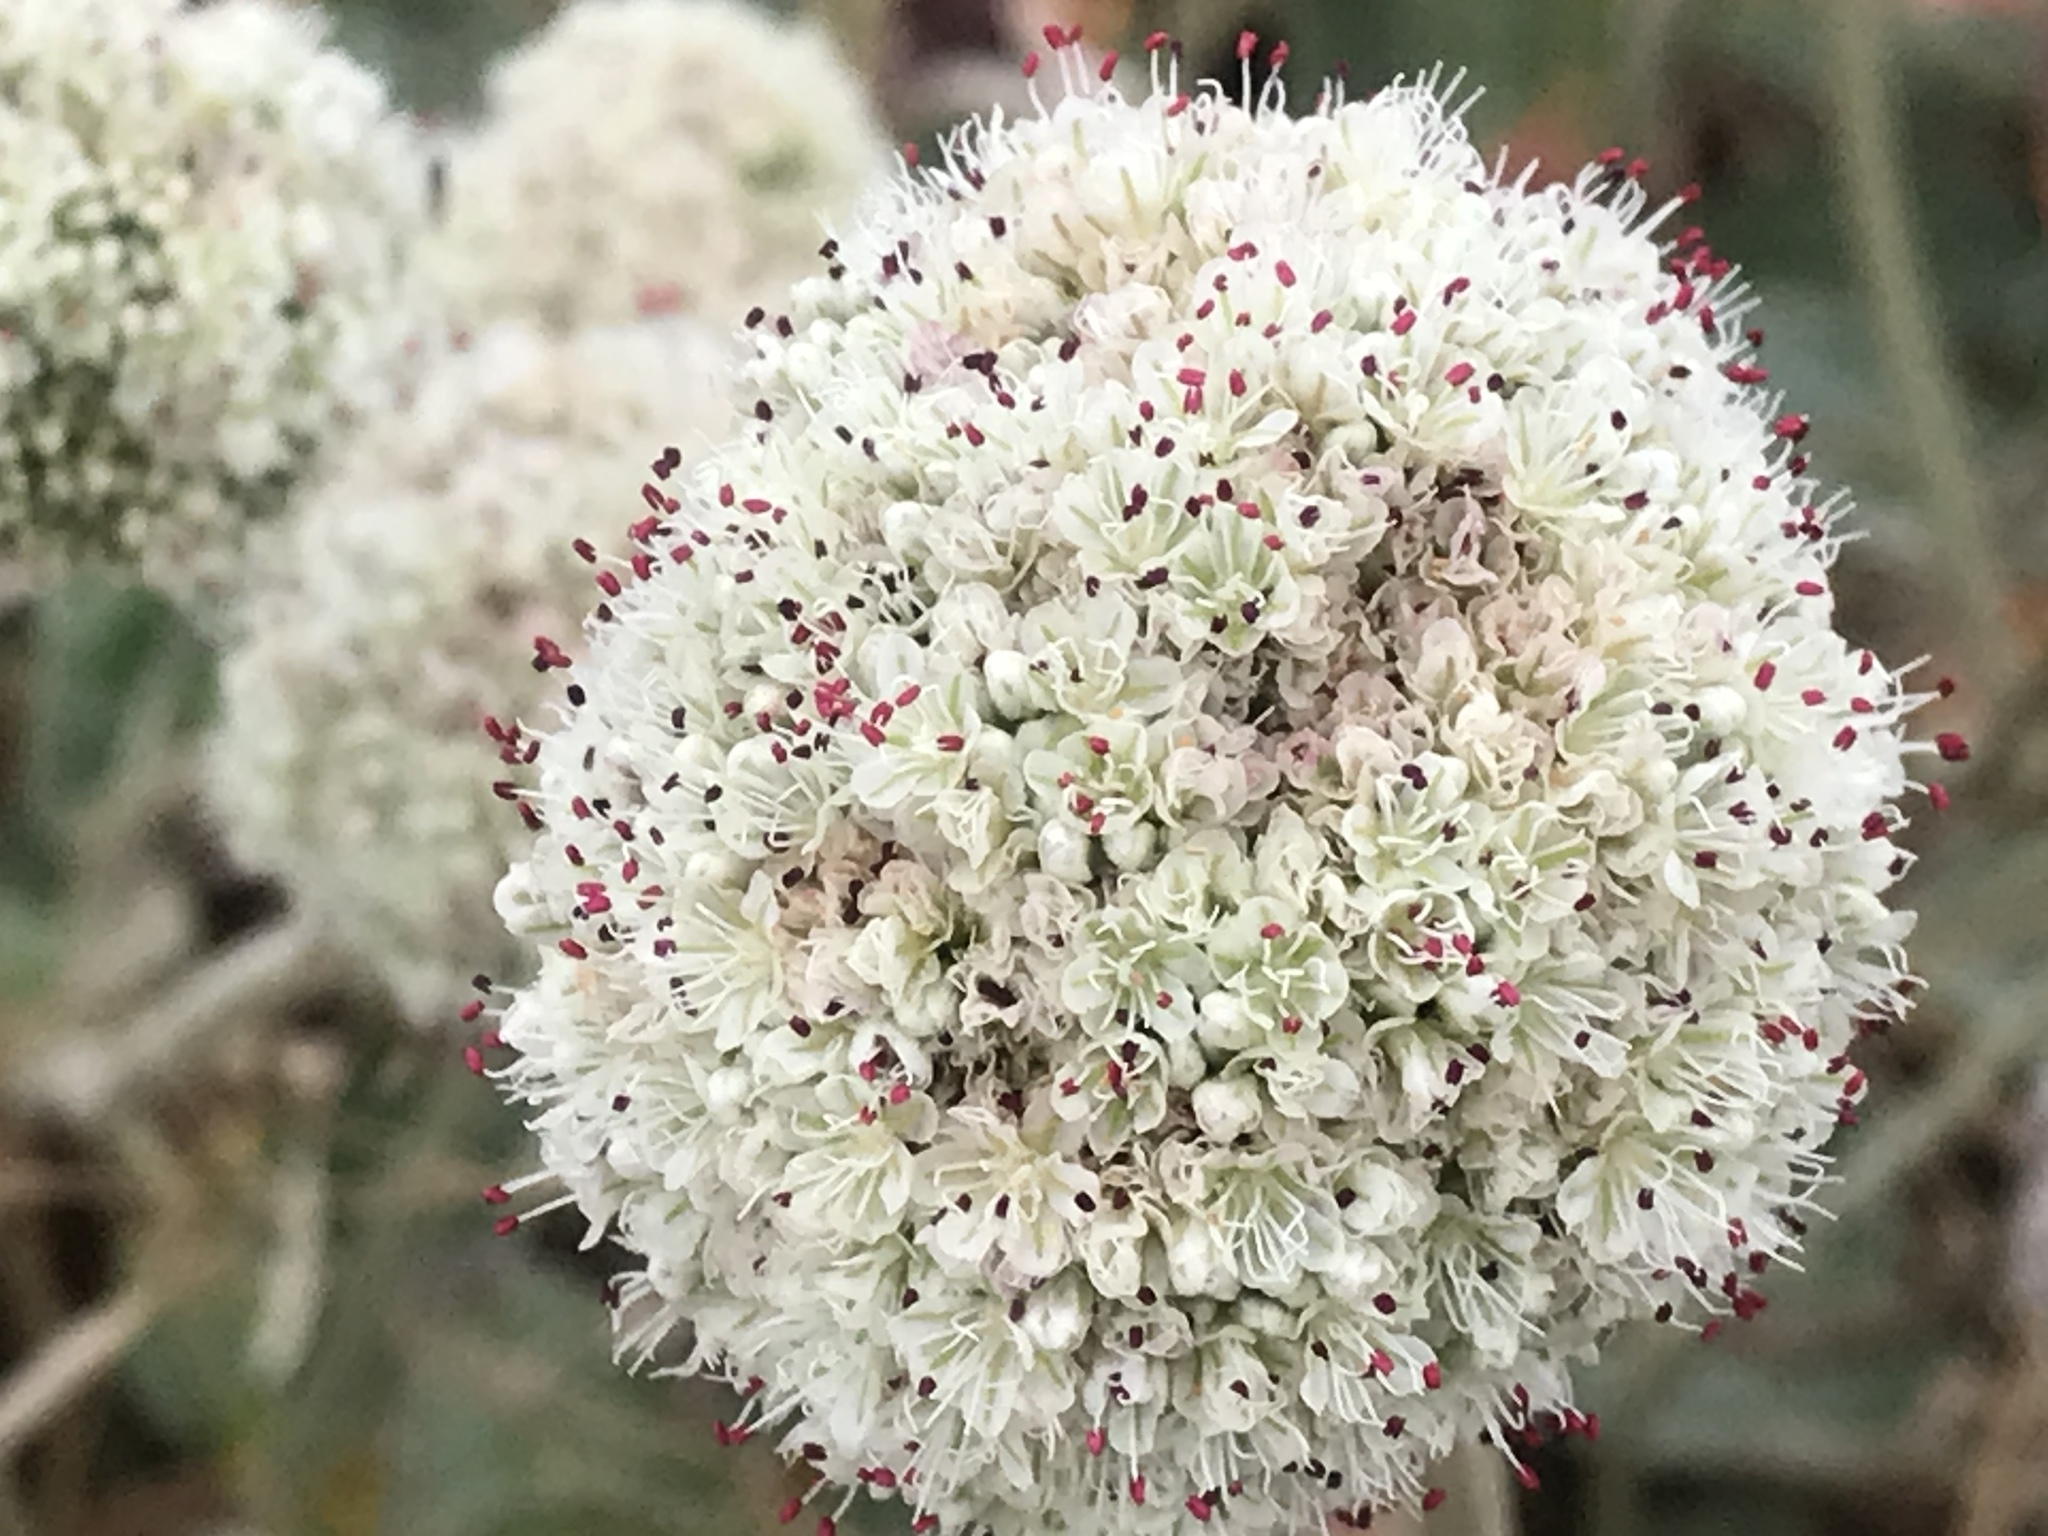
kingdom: Plantae
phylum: Tracheophyta
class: Magnoliopsida
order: Caryophyllales
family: Polygonaceae
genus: Eriogonum
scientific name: Eriogonum latifolium
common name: Seaside wild buckwheat
